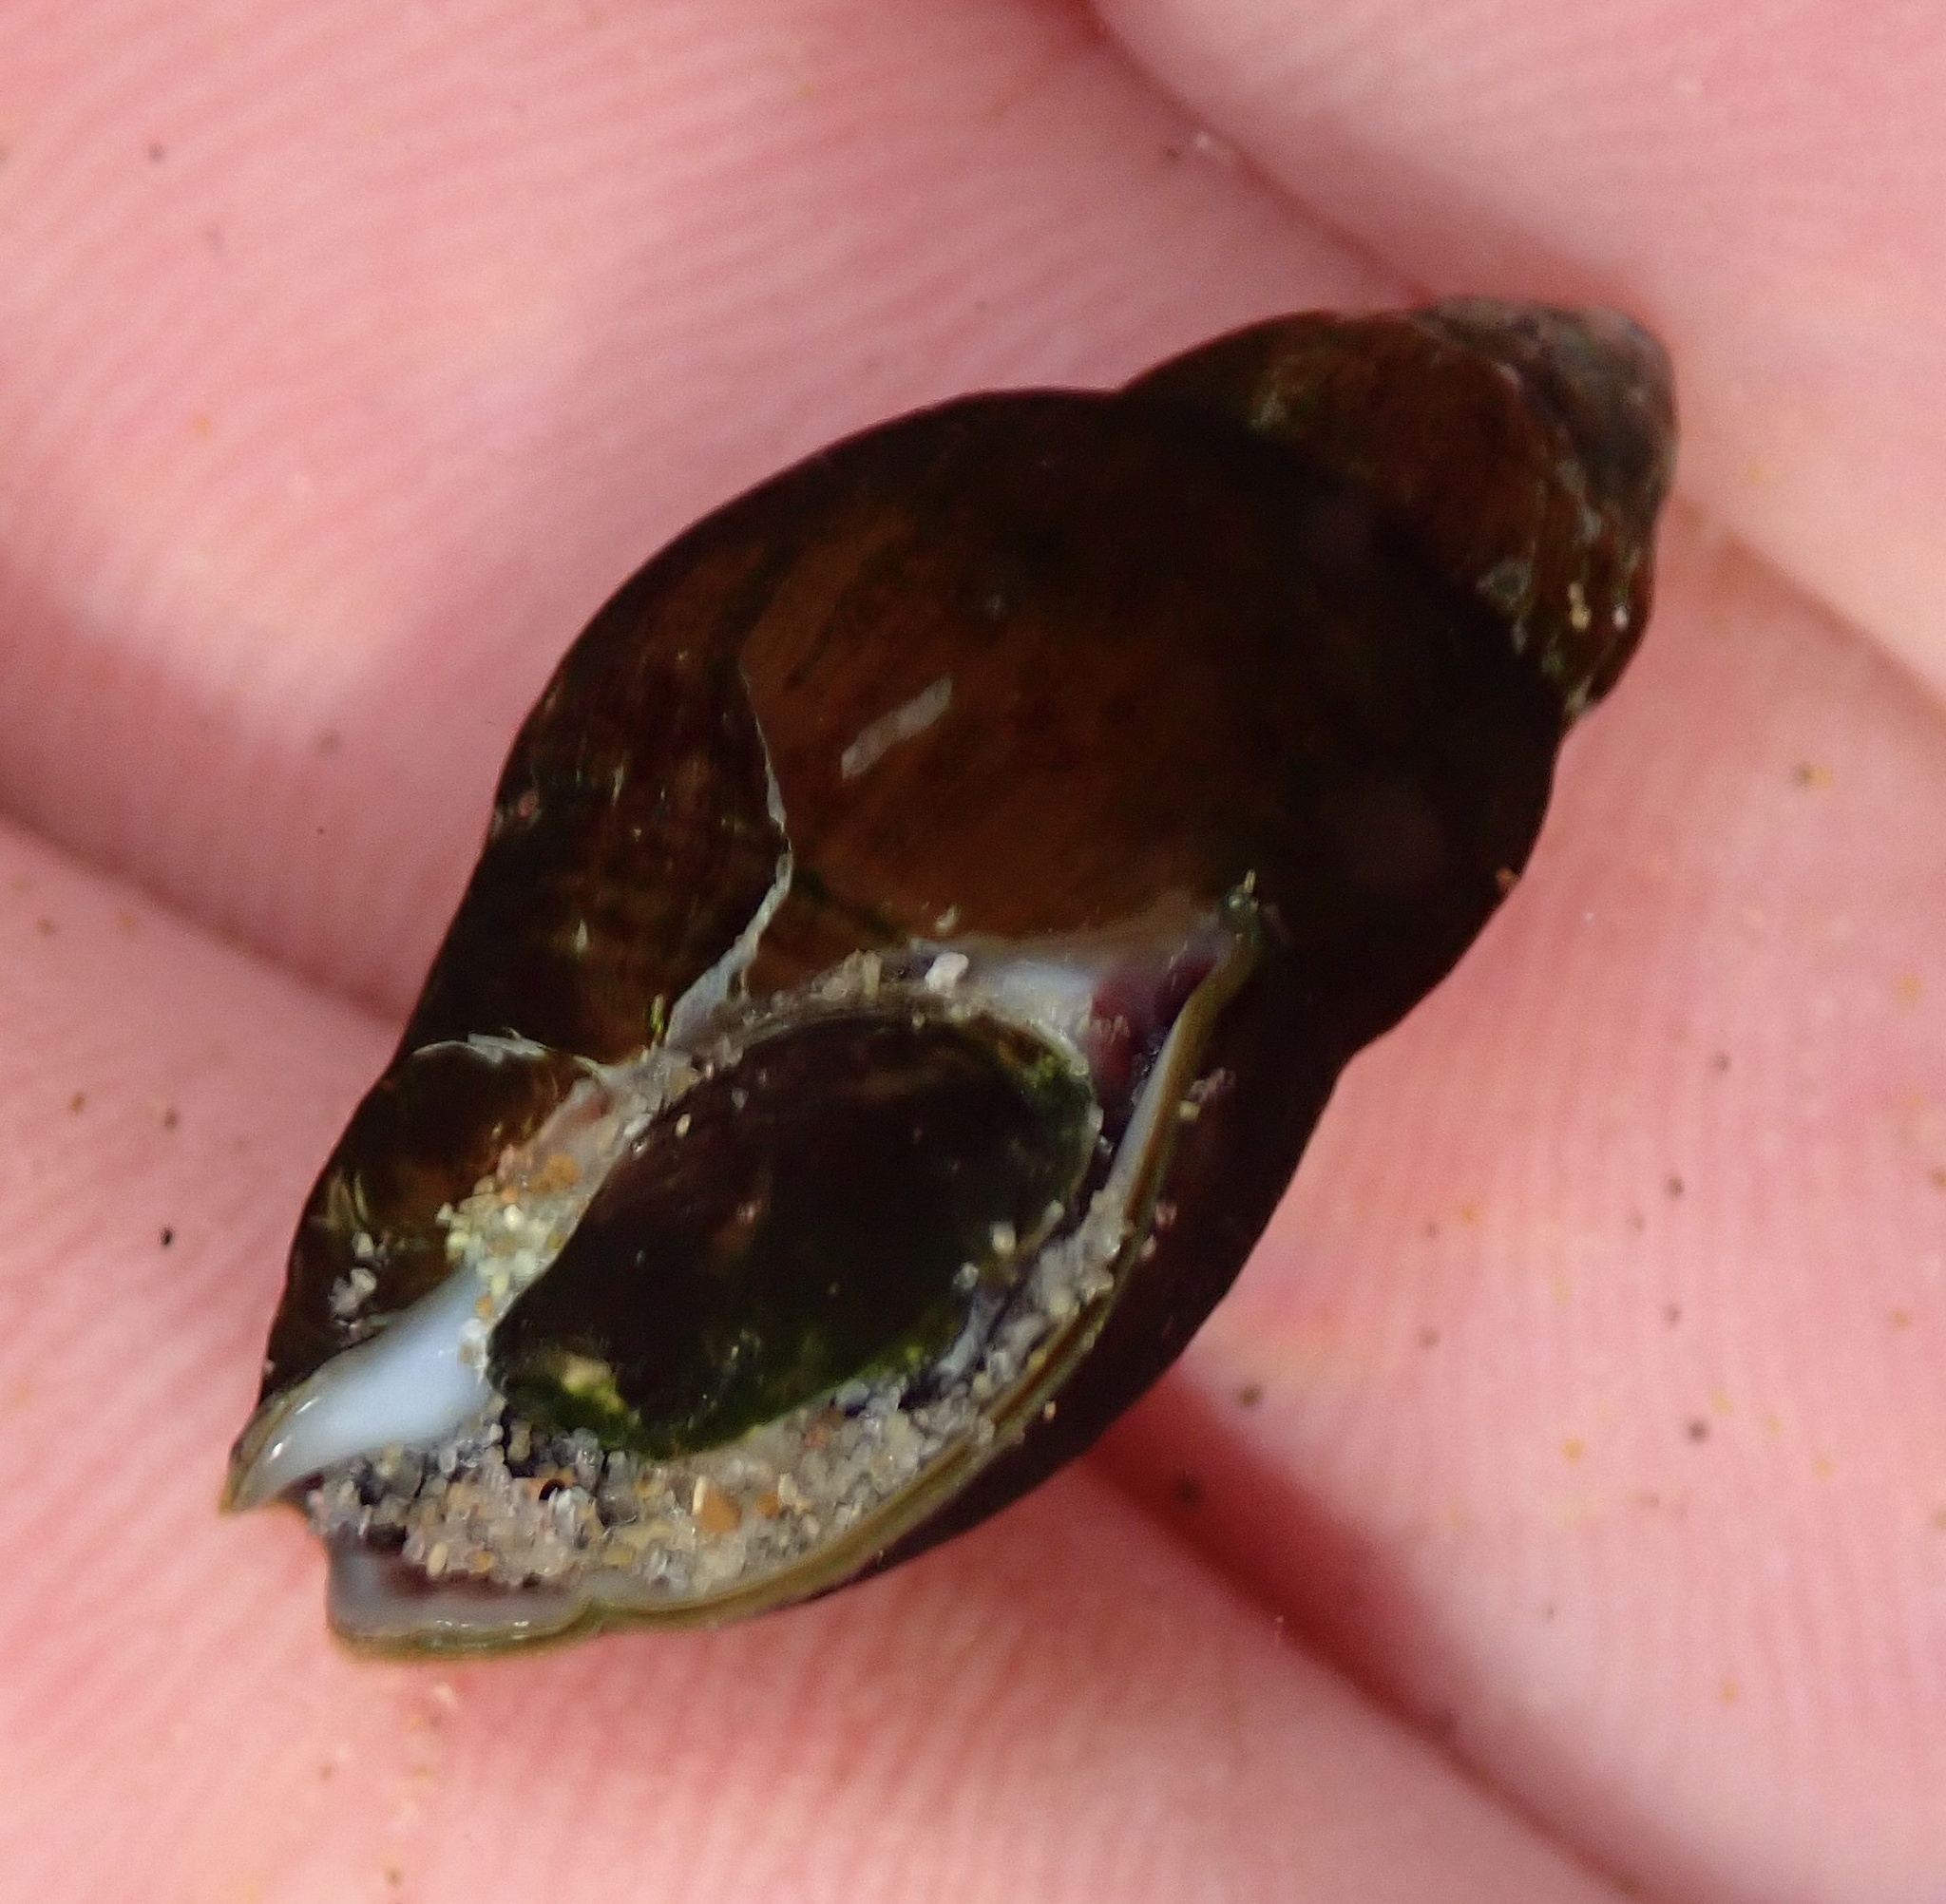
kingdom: Animalia
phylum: Mollusca
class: Gastropoda
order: Neogastropoda
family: Pseudolividae
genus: Macron
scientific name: Macron lividus
